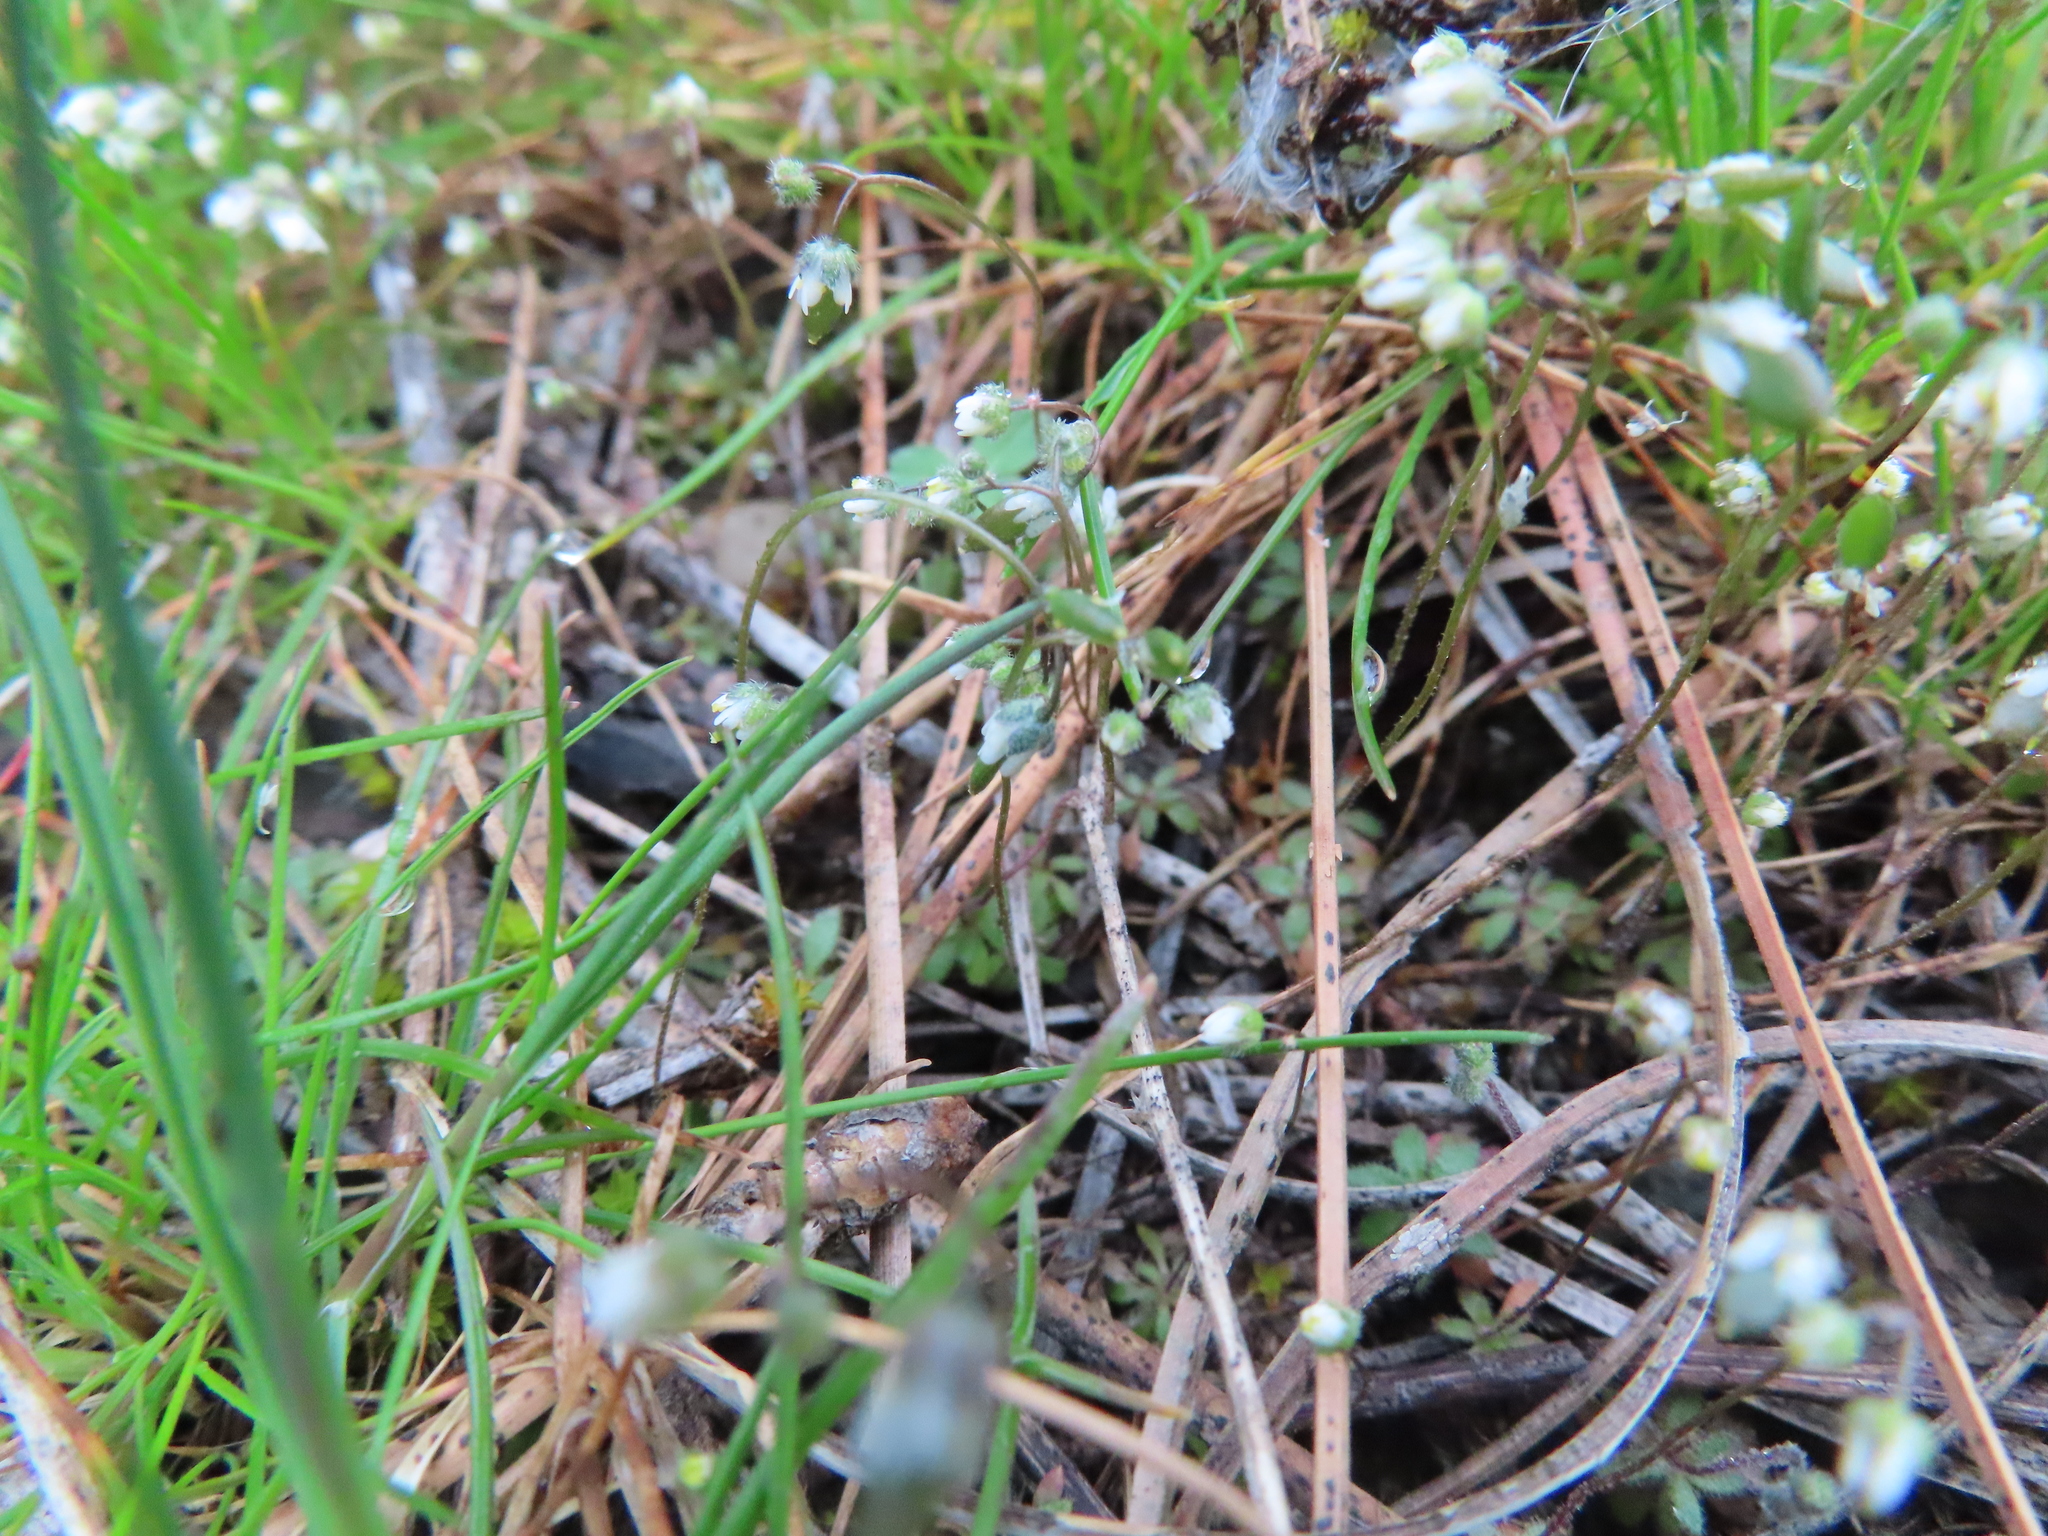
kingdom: Plantae
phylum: Tracheophyta
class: Magnoliopsida
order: Brassicales
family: Brassicaceae
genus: Draba
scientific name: Draba verna
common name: Spring draba
